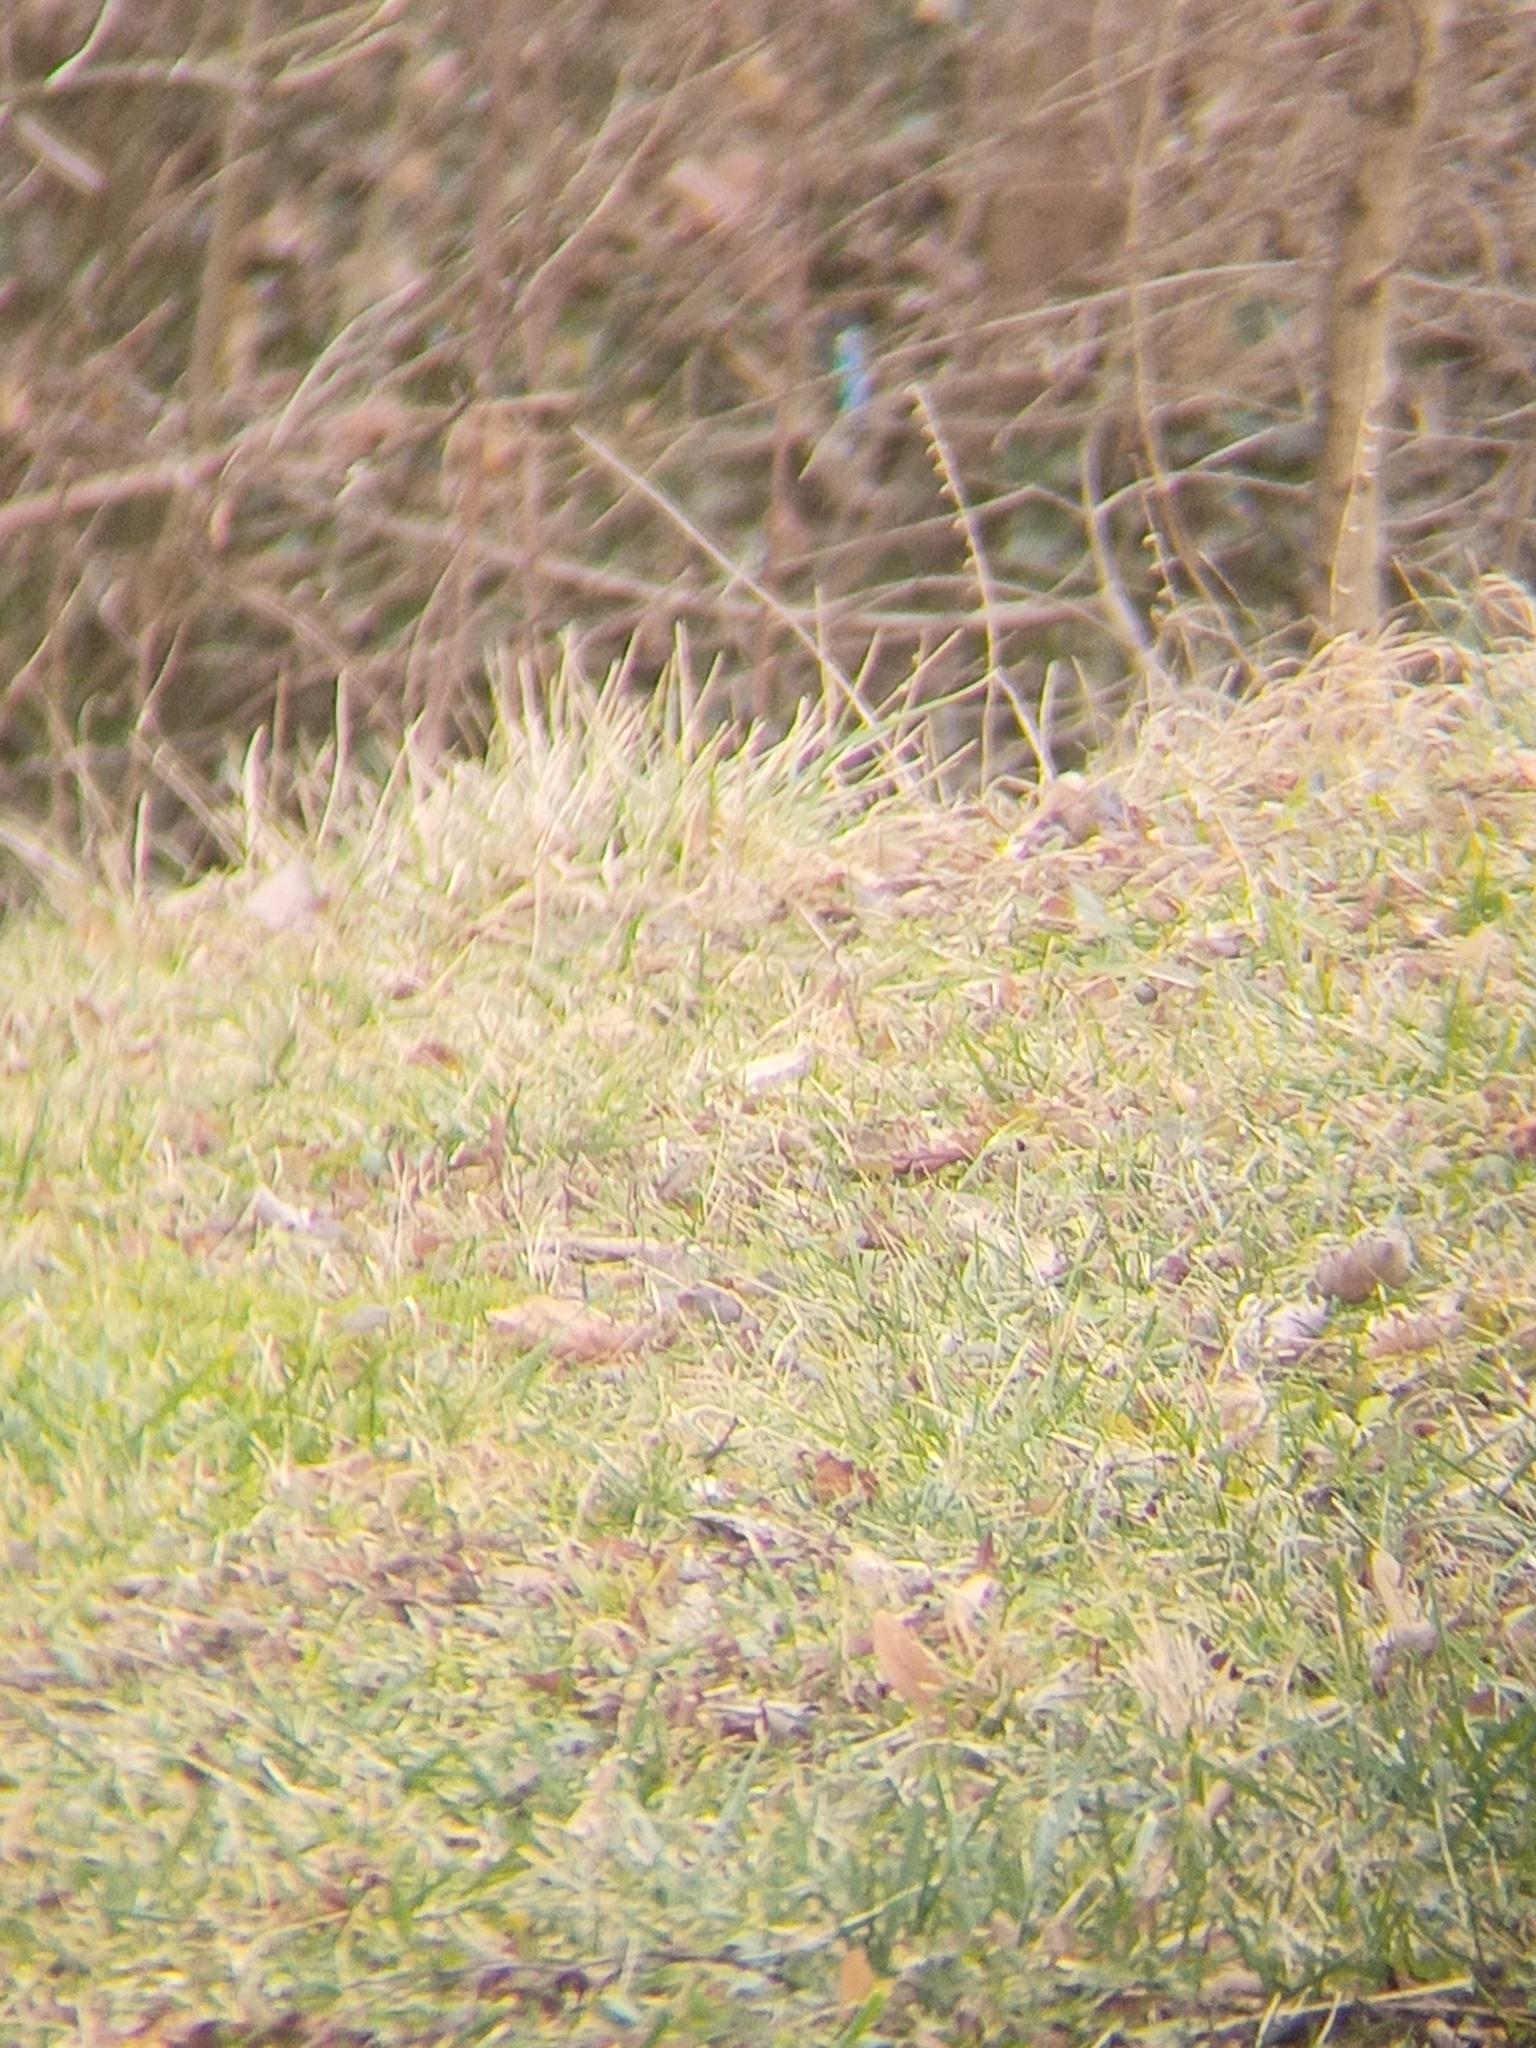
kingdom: Animalia
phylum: Chordata
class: Aves
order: Coraciiformes
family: Alcedinidae
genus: Alcedo
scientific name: Alcedo atthis
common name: Common kingfisher
